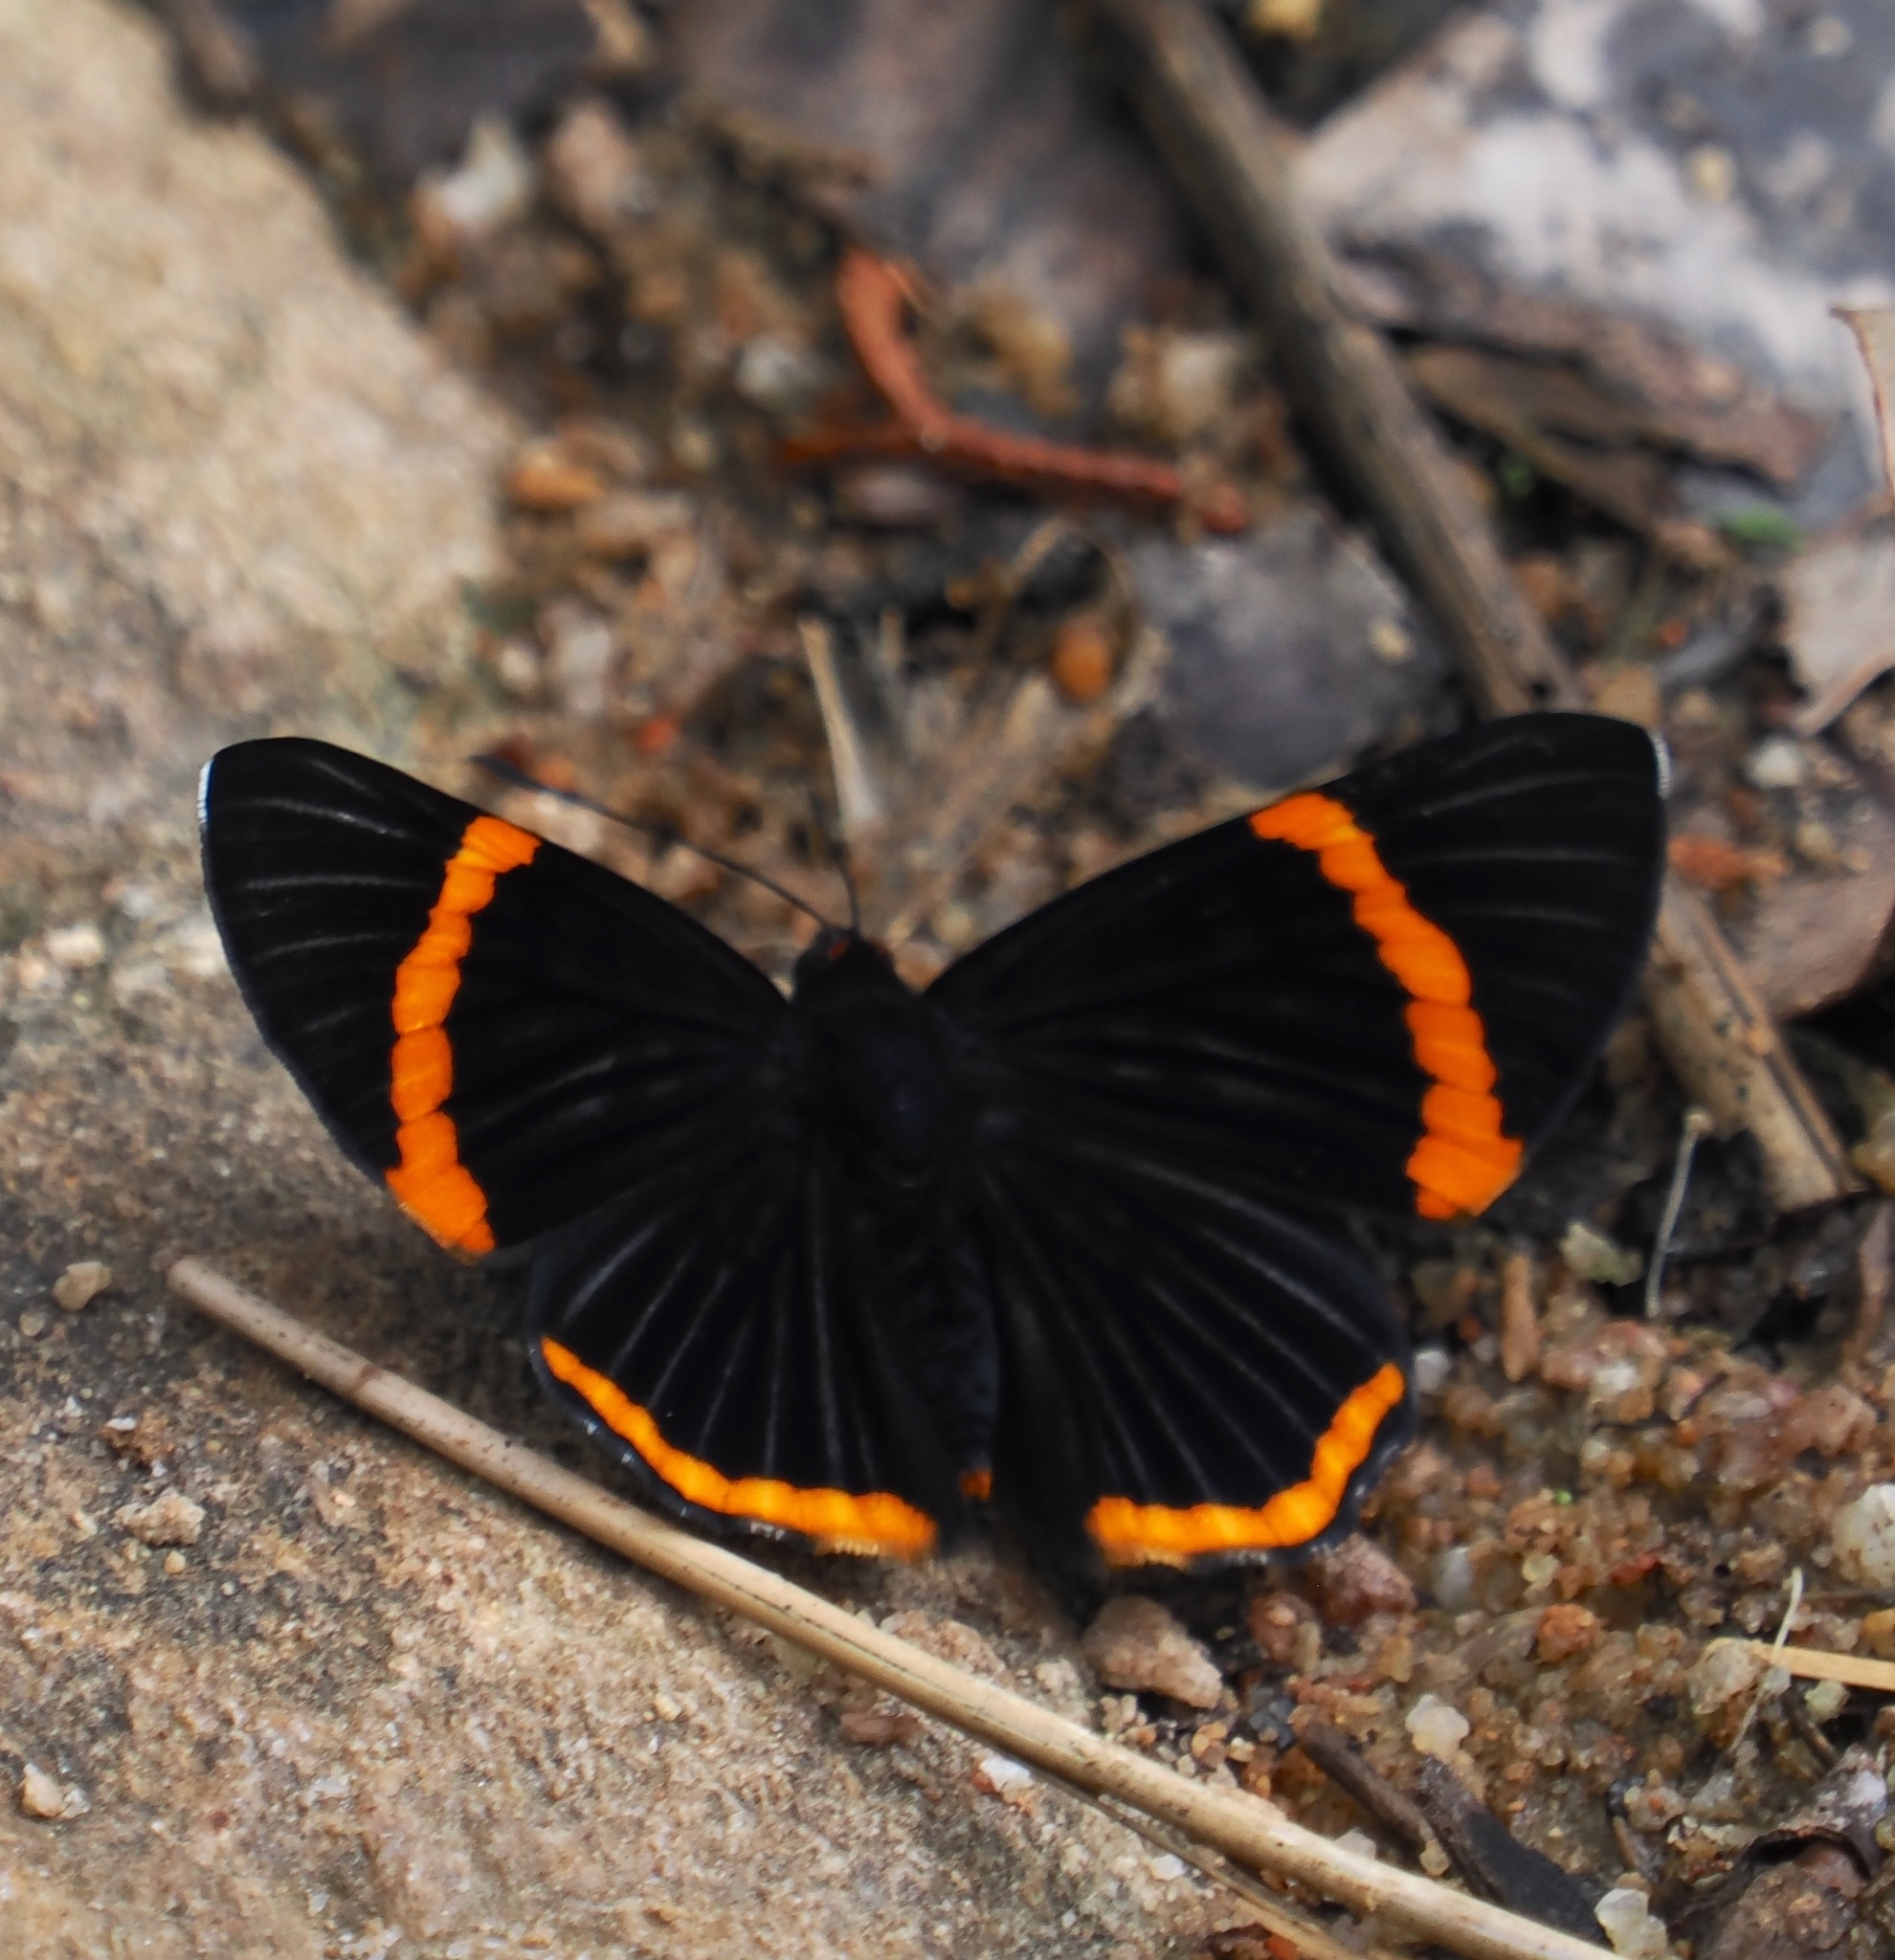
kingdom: Animalia
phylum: Arthropoda
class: Insecta
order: Lepidoptera
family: Riodinidae
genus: Riodina
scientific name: Riodina lycisca
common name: Lycisca metalmark
